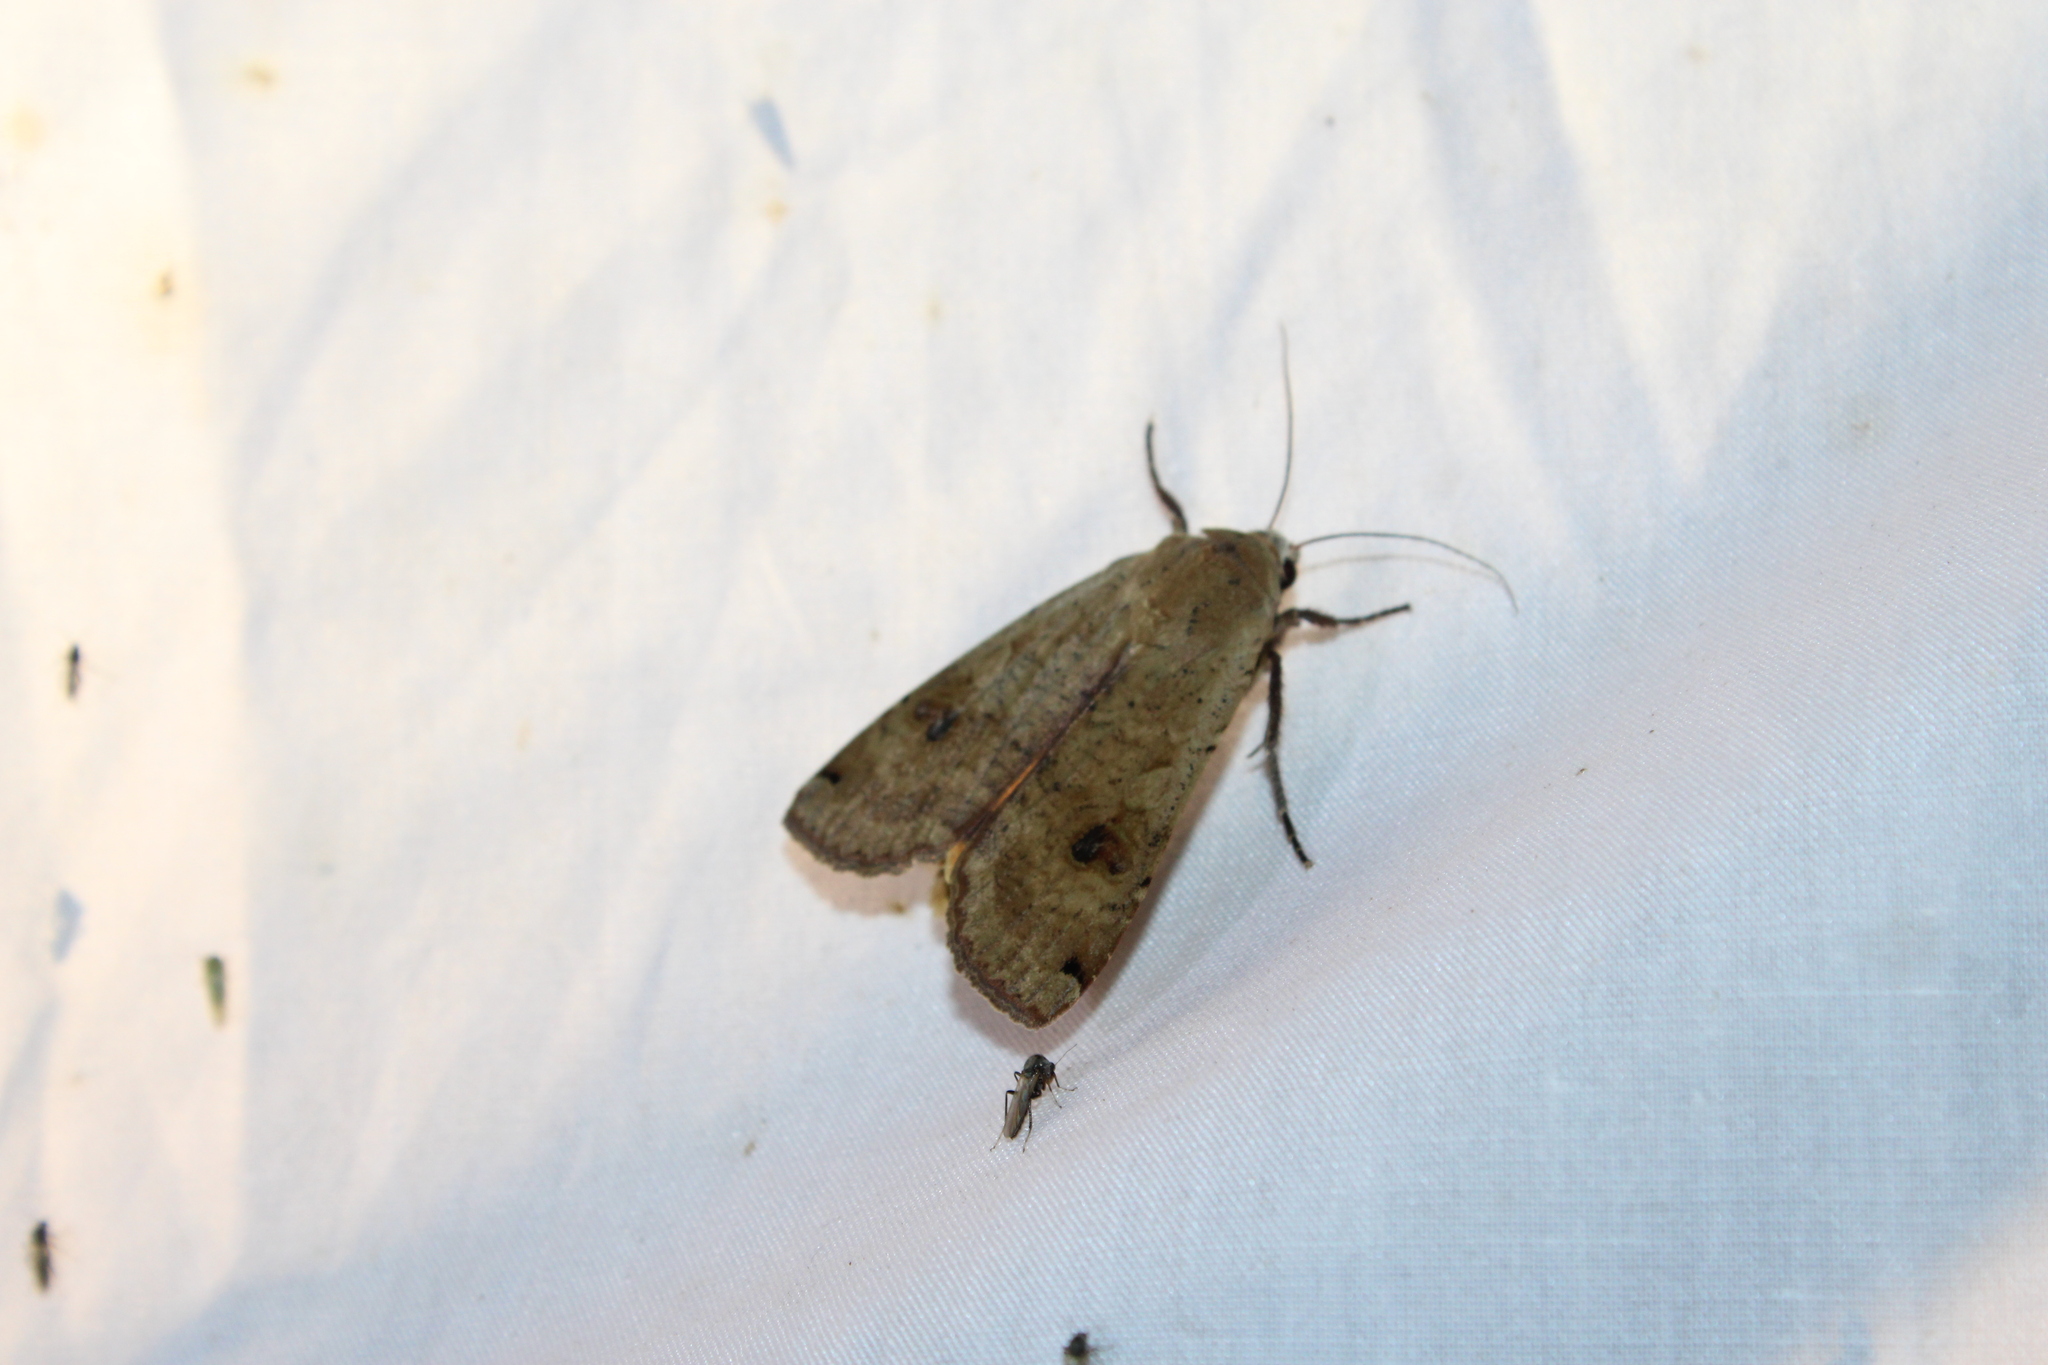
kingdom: Animalia
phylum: Arthropoda
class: Insecta
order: Lepidoptera
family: Noctuidae
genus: Noctua
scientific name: Noctua pronuba
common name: Large yellow underwing
